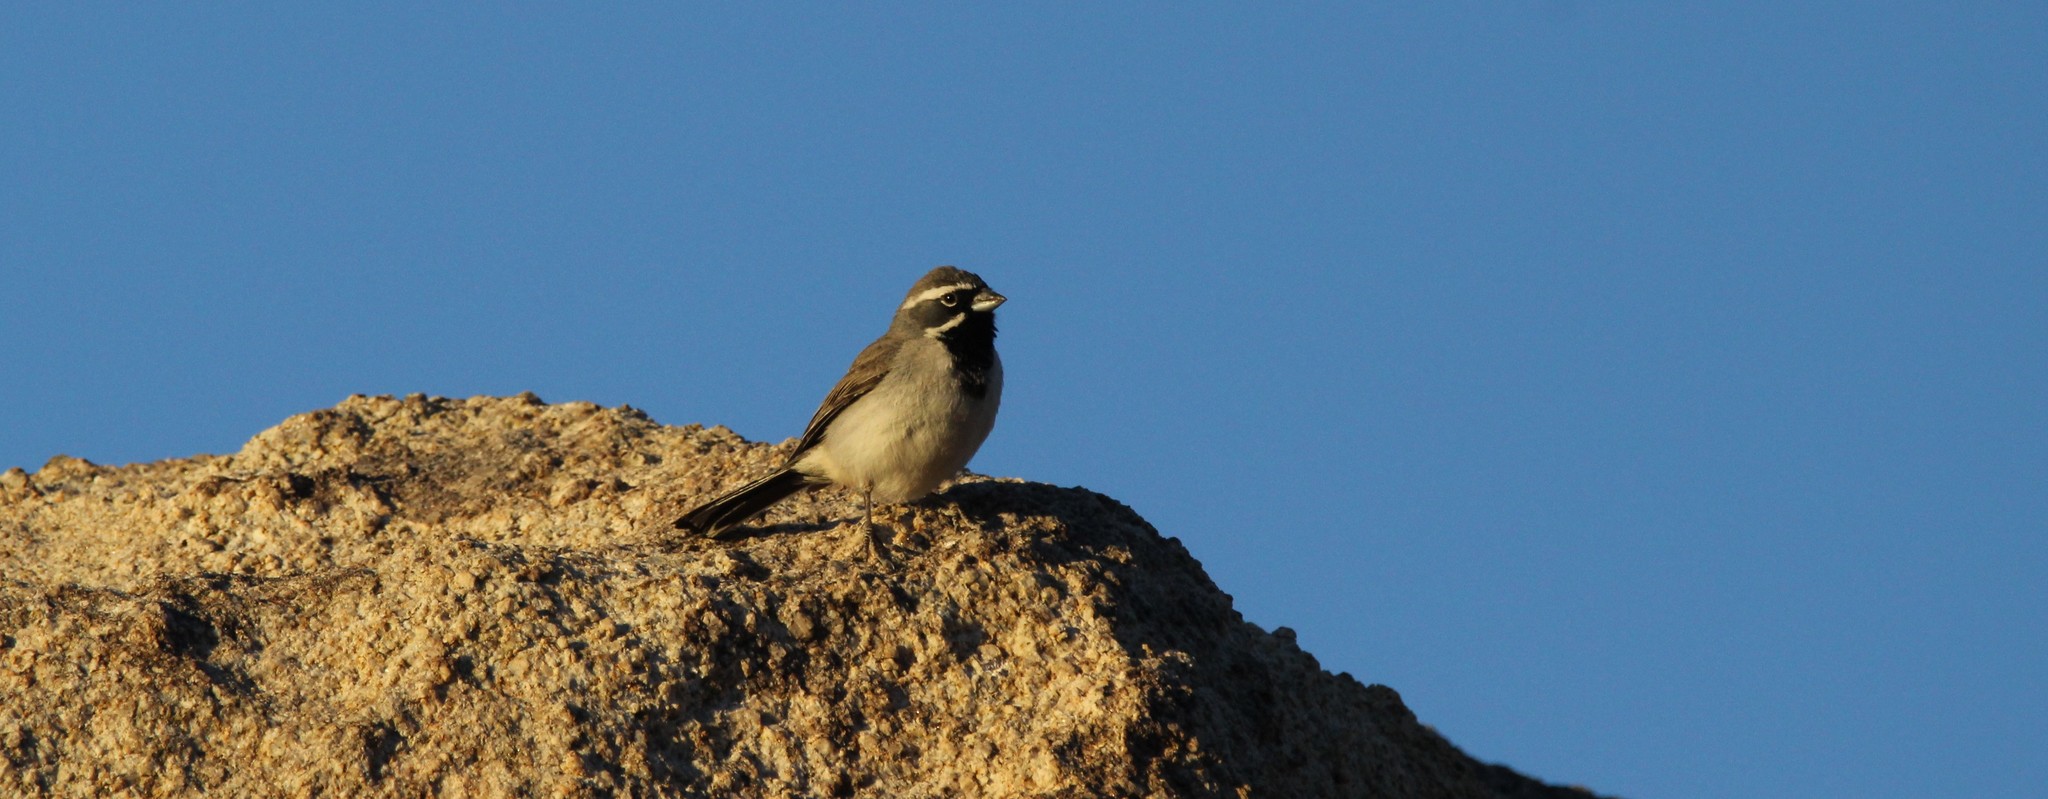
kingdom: Animalia
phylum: Chordata
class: Aves
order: Passeriformes
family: Passerellidae
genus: Amphispiza
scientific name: Amphispiza bilineata
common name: Black-throated sparrow
